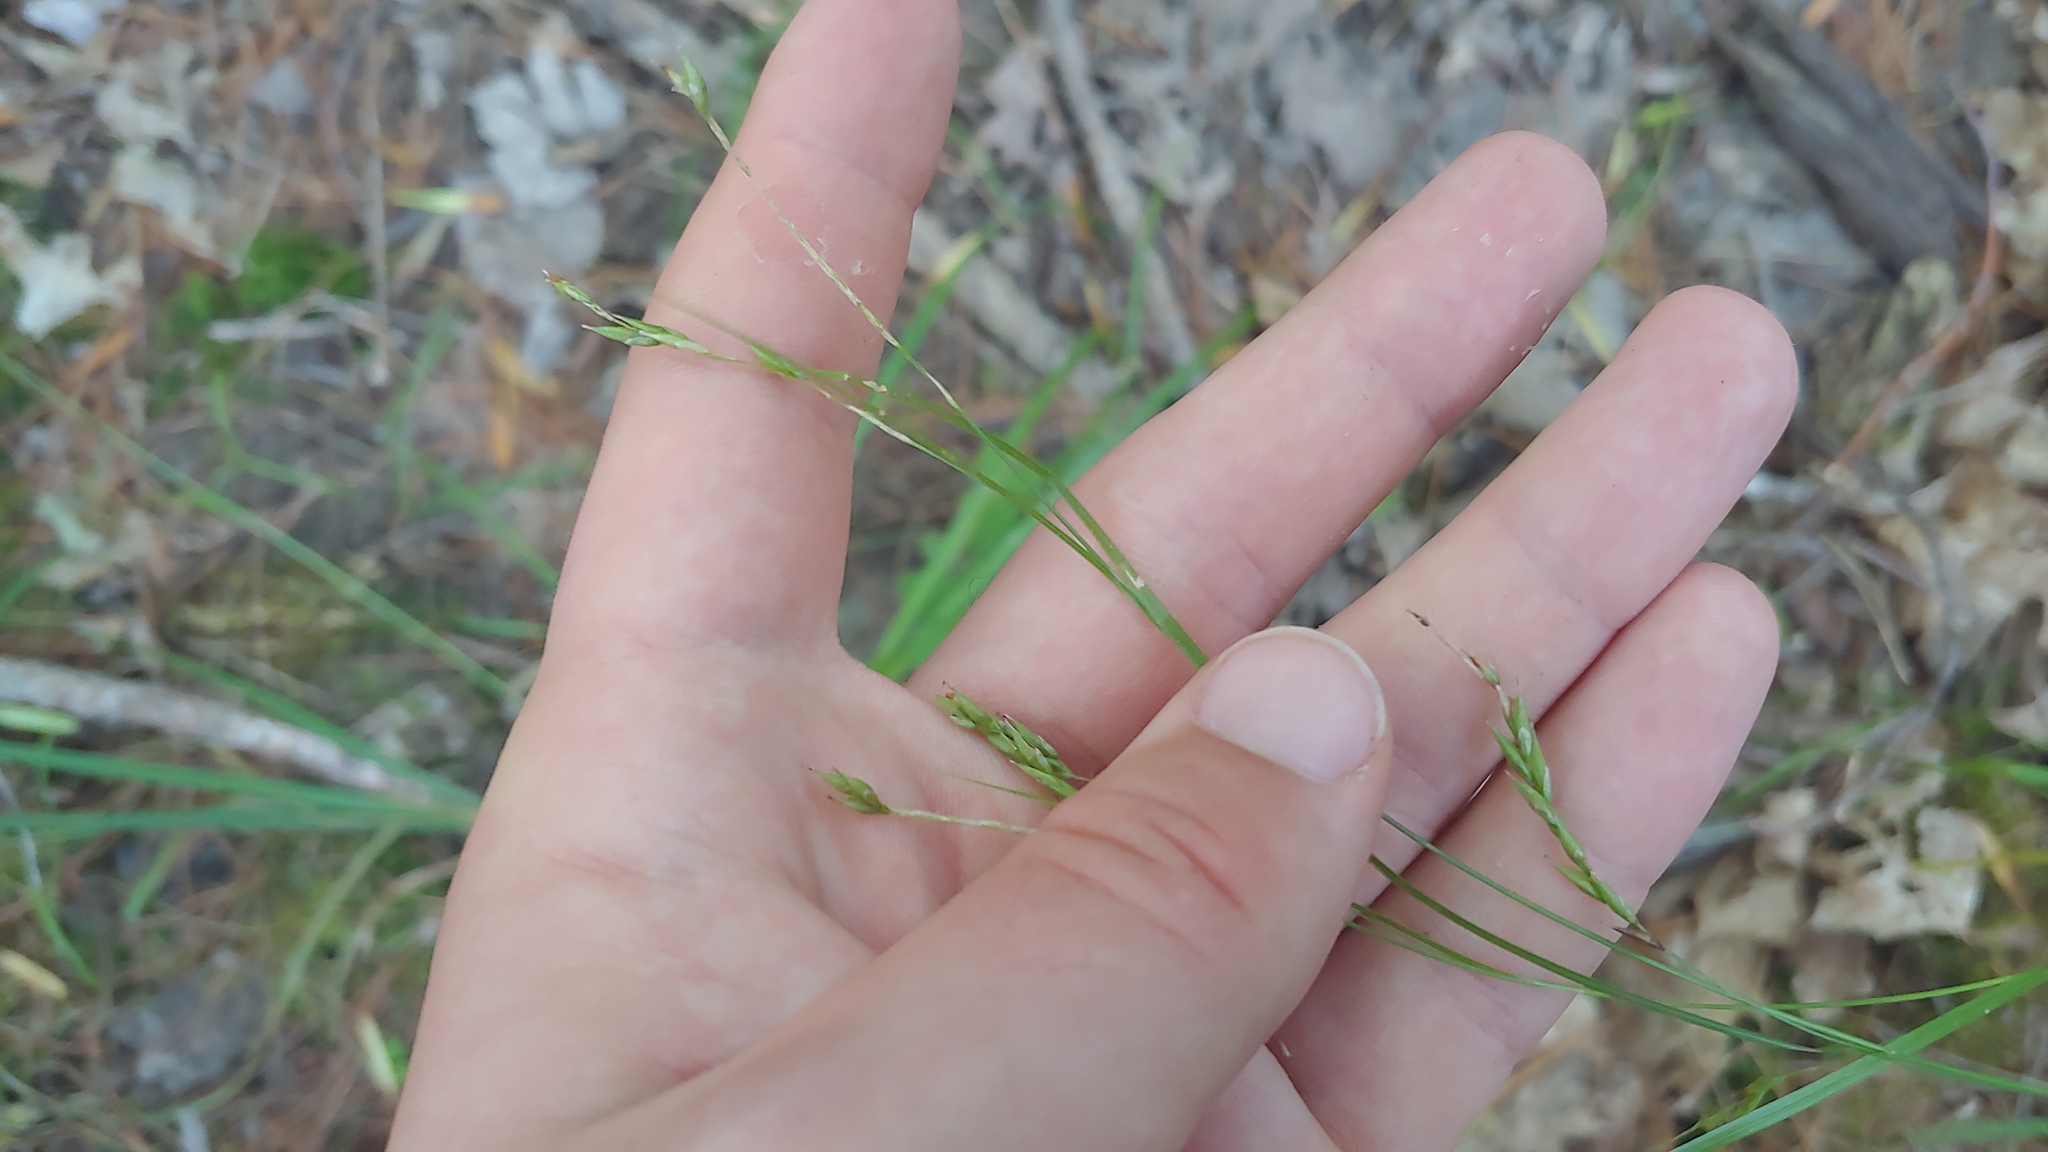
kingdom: Plantae
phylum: Tracheophyta
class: Liliopsida
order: Poales
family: Cyperaceae
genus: Carex
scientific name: Carex debilis
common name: White-edge sedge
